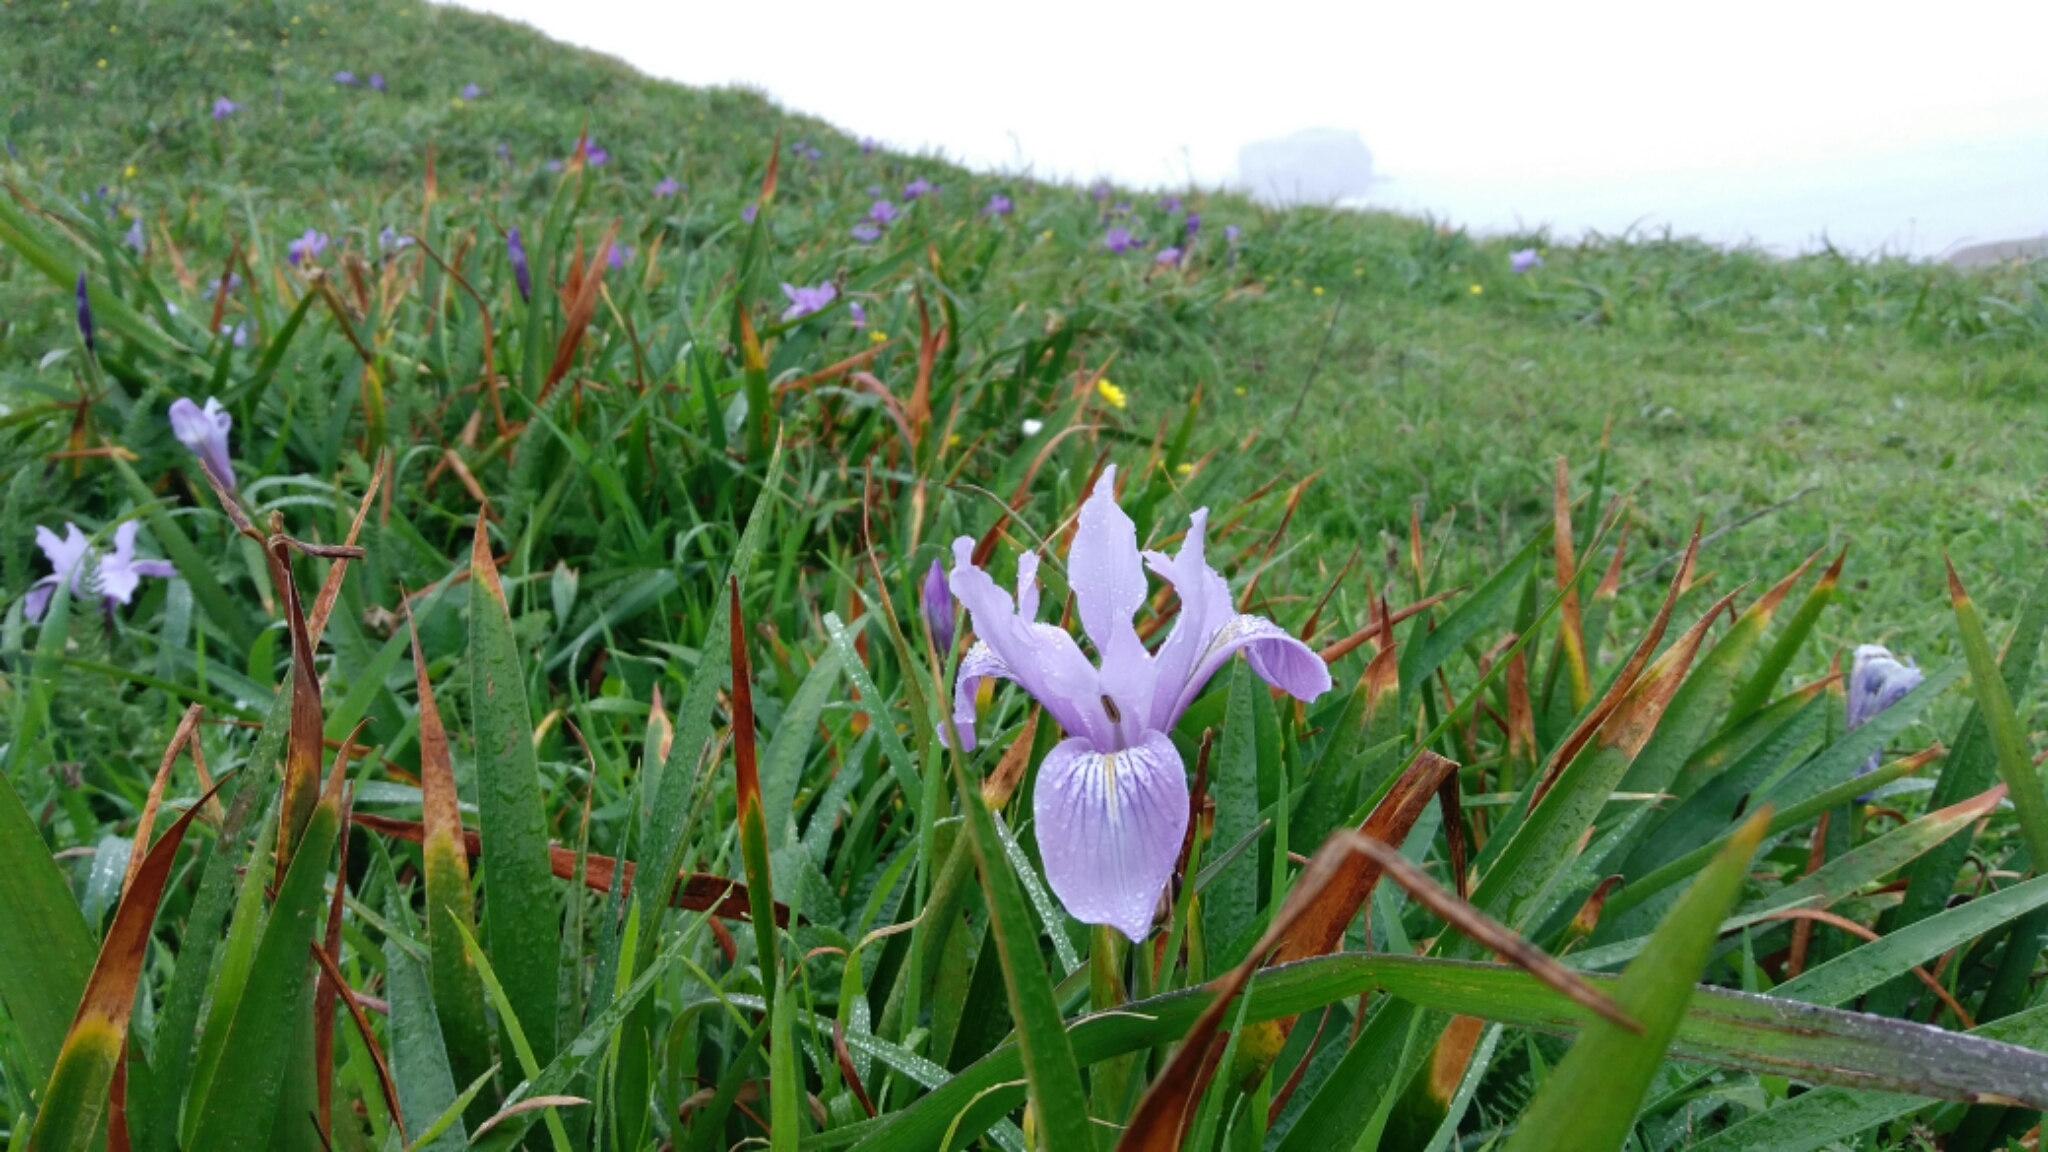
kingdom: Plantae
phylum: Tracheophyta
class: Liliopsida
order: Asparagales
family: Iridaceae
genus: Iris
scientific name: Iris douglasiana
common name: Marin iris
